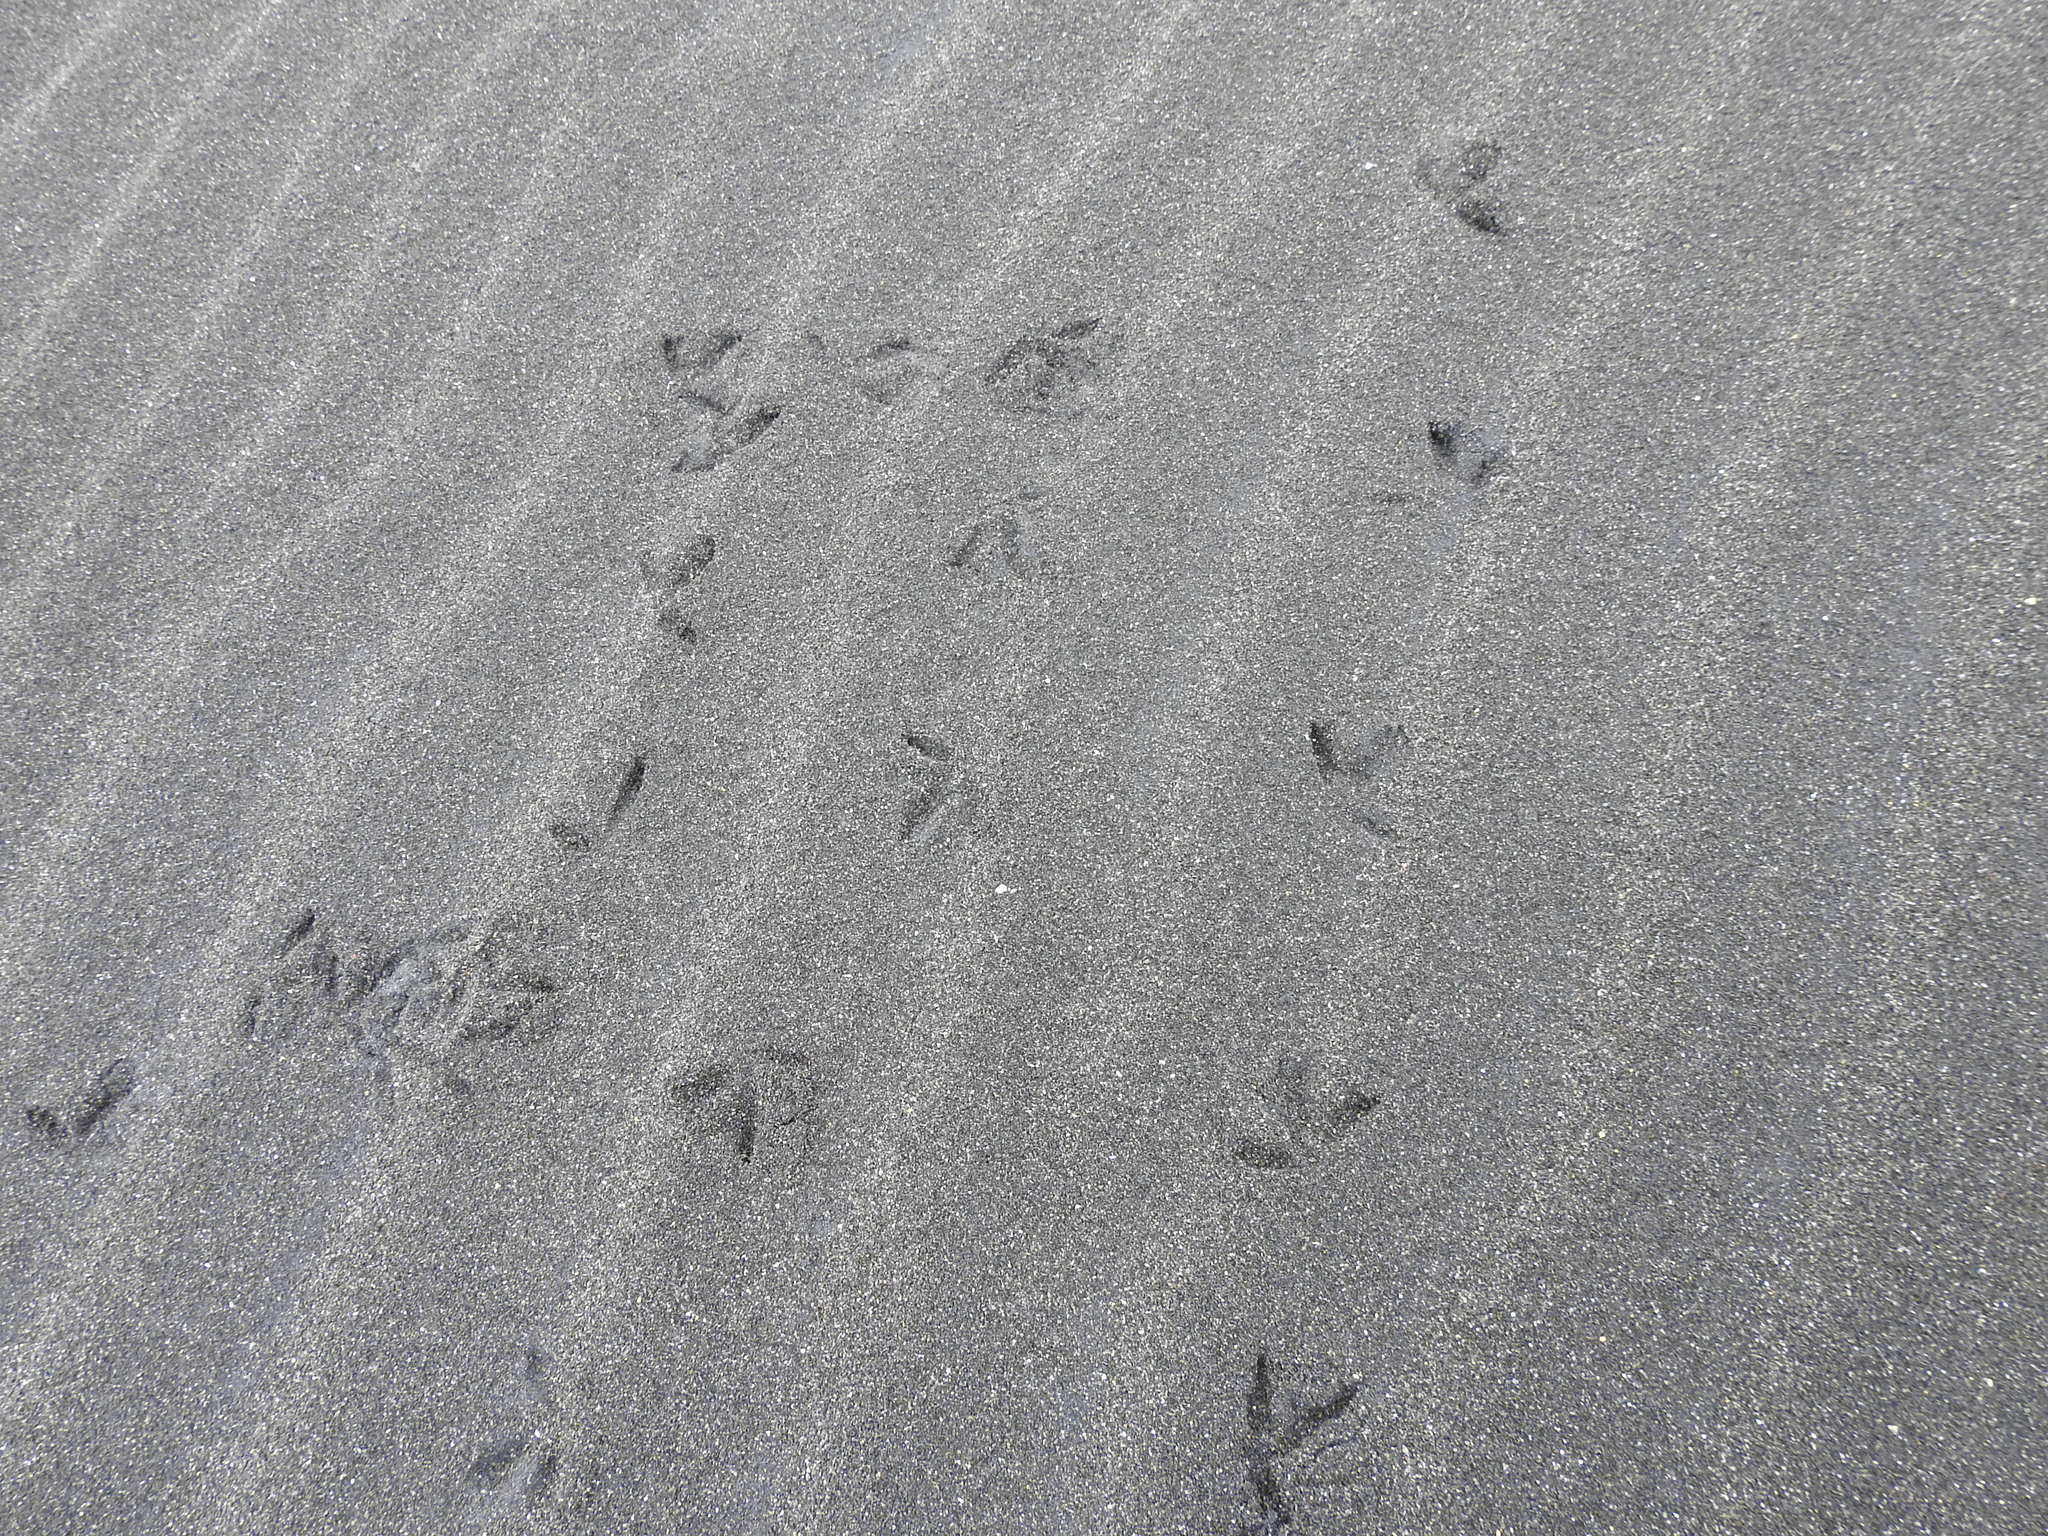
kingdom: Animalia
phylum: Chordata
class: Aves
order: Charadriiformes
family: Charadriidae
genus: Anarhynchus
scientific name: Anarhynchus
